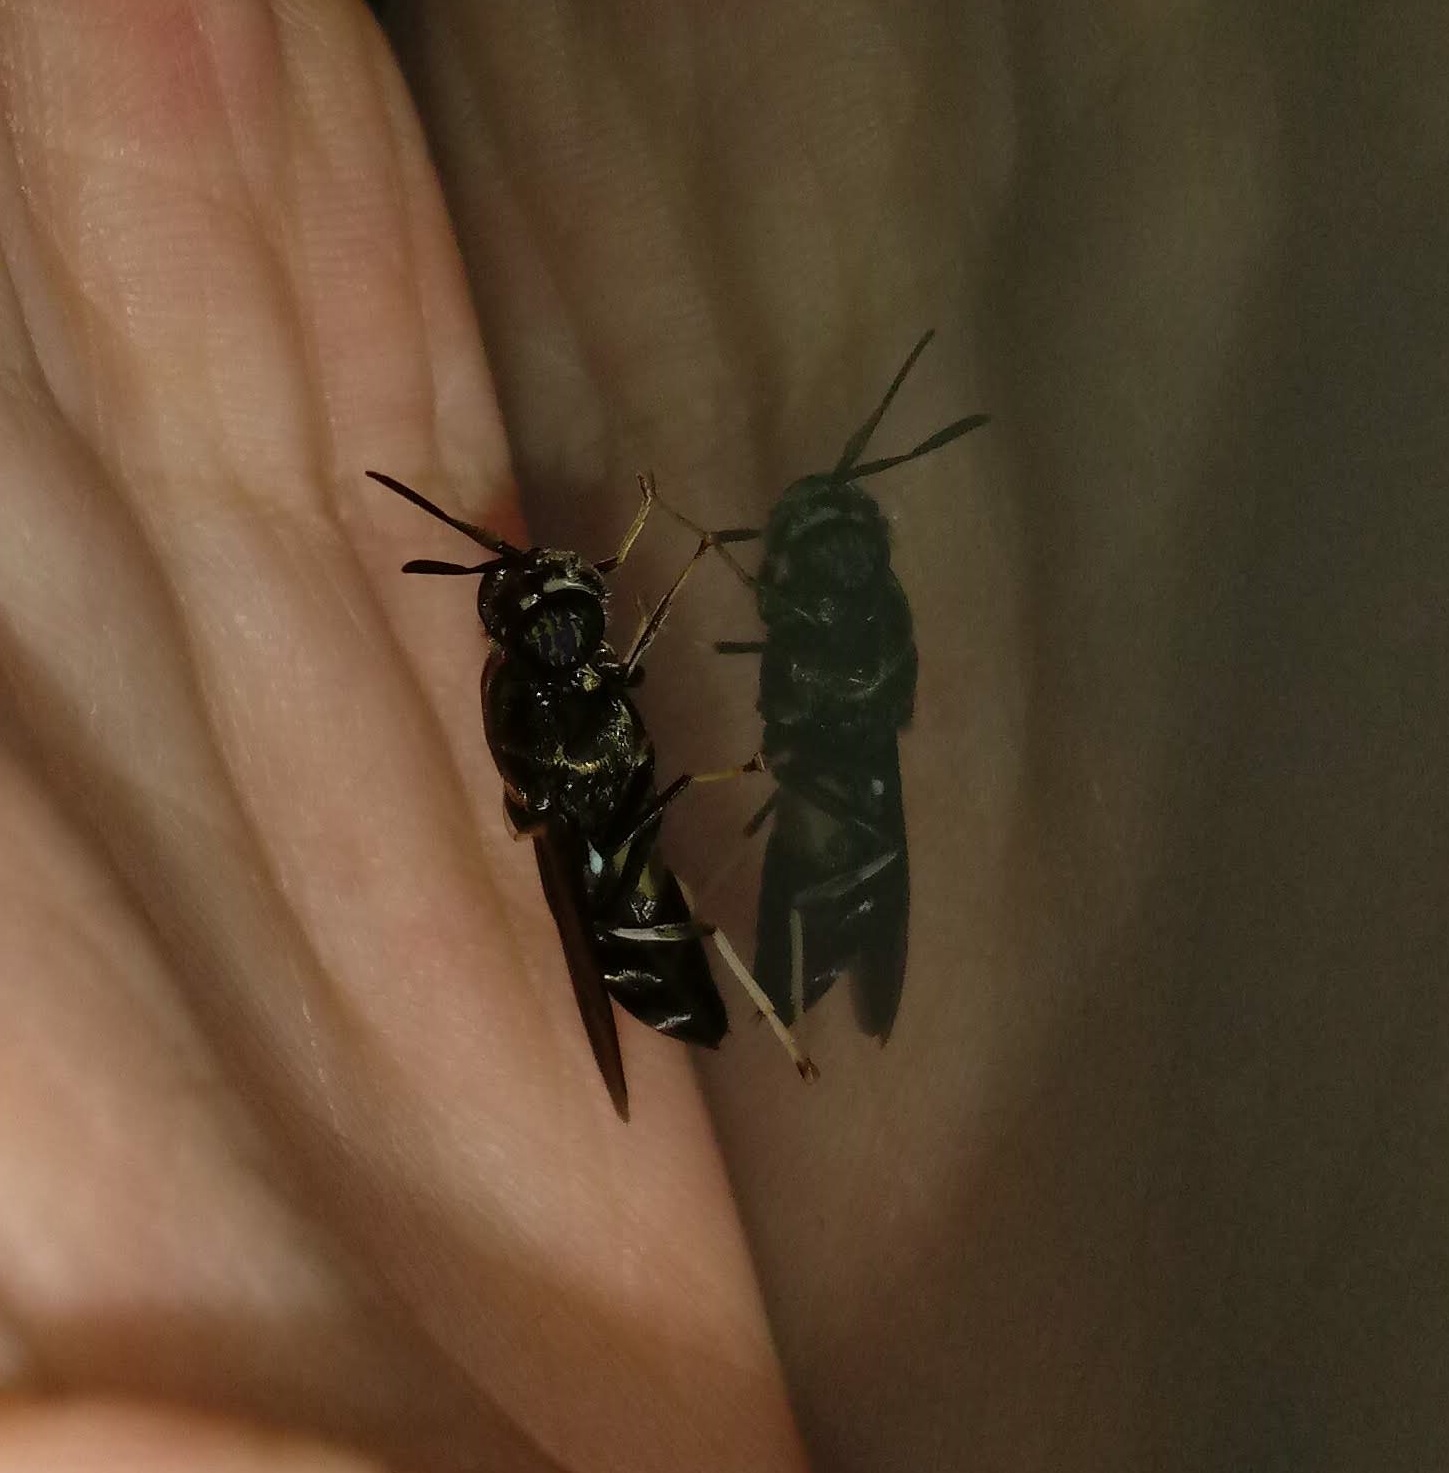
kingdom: Animalia
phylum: Arthropoda
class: Insecta
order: Diptera
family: Stratiomyidae
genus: Hermetia
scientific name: Hermetia illucens
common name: Black soldier fly
